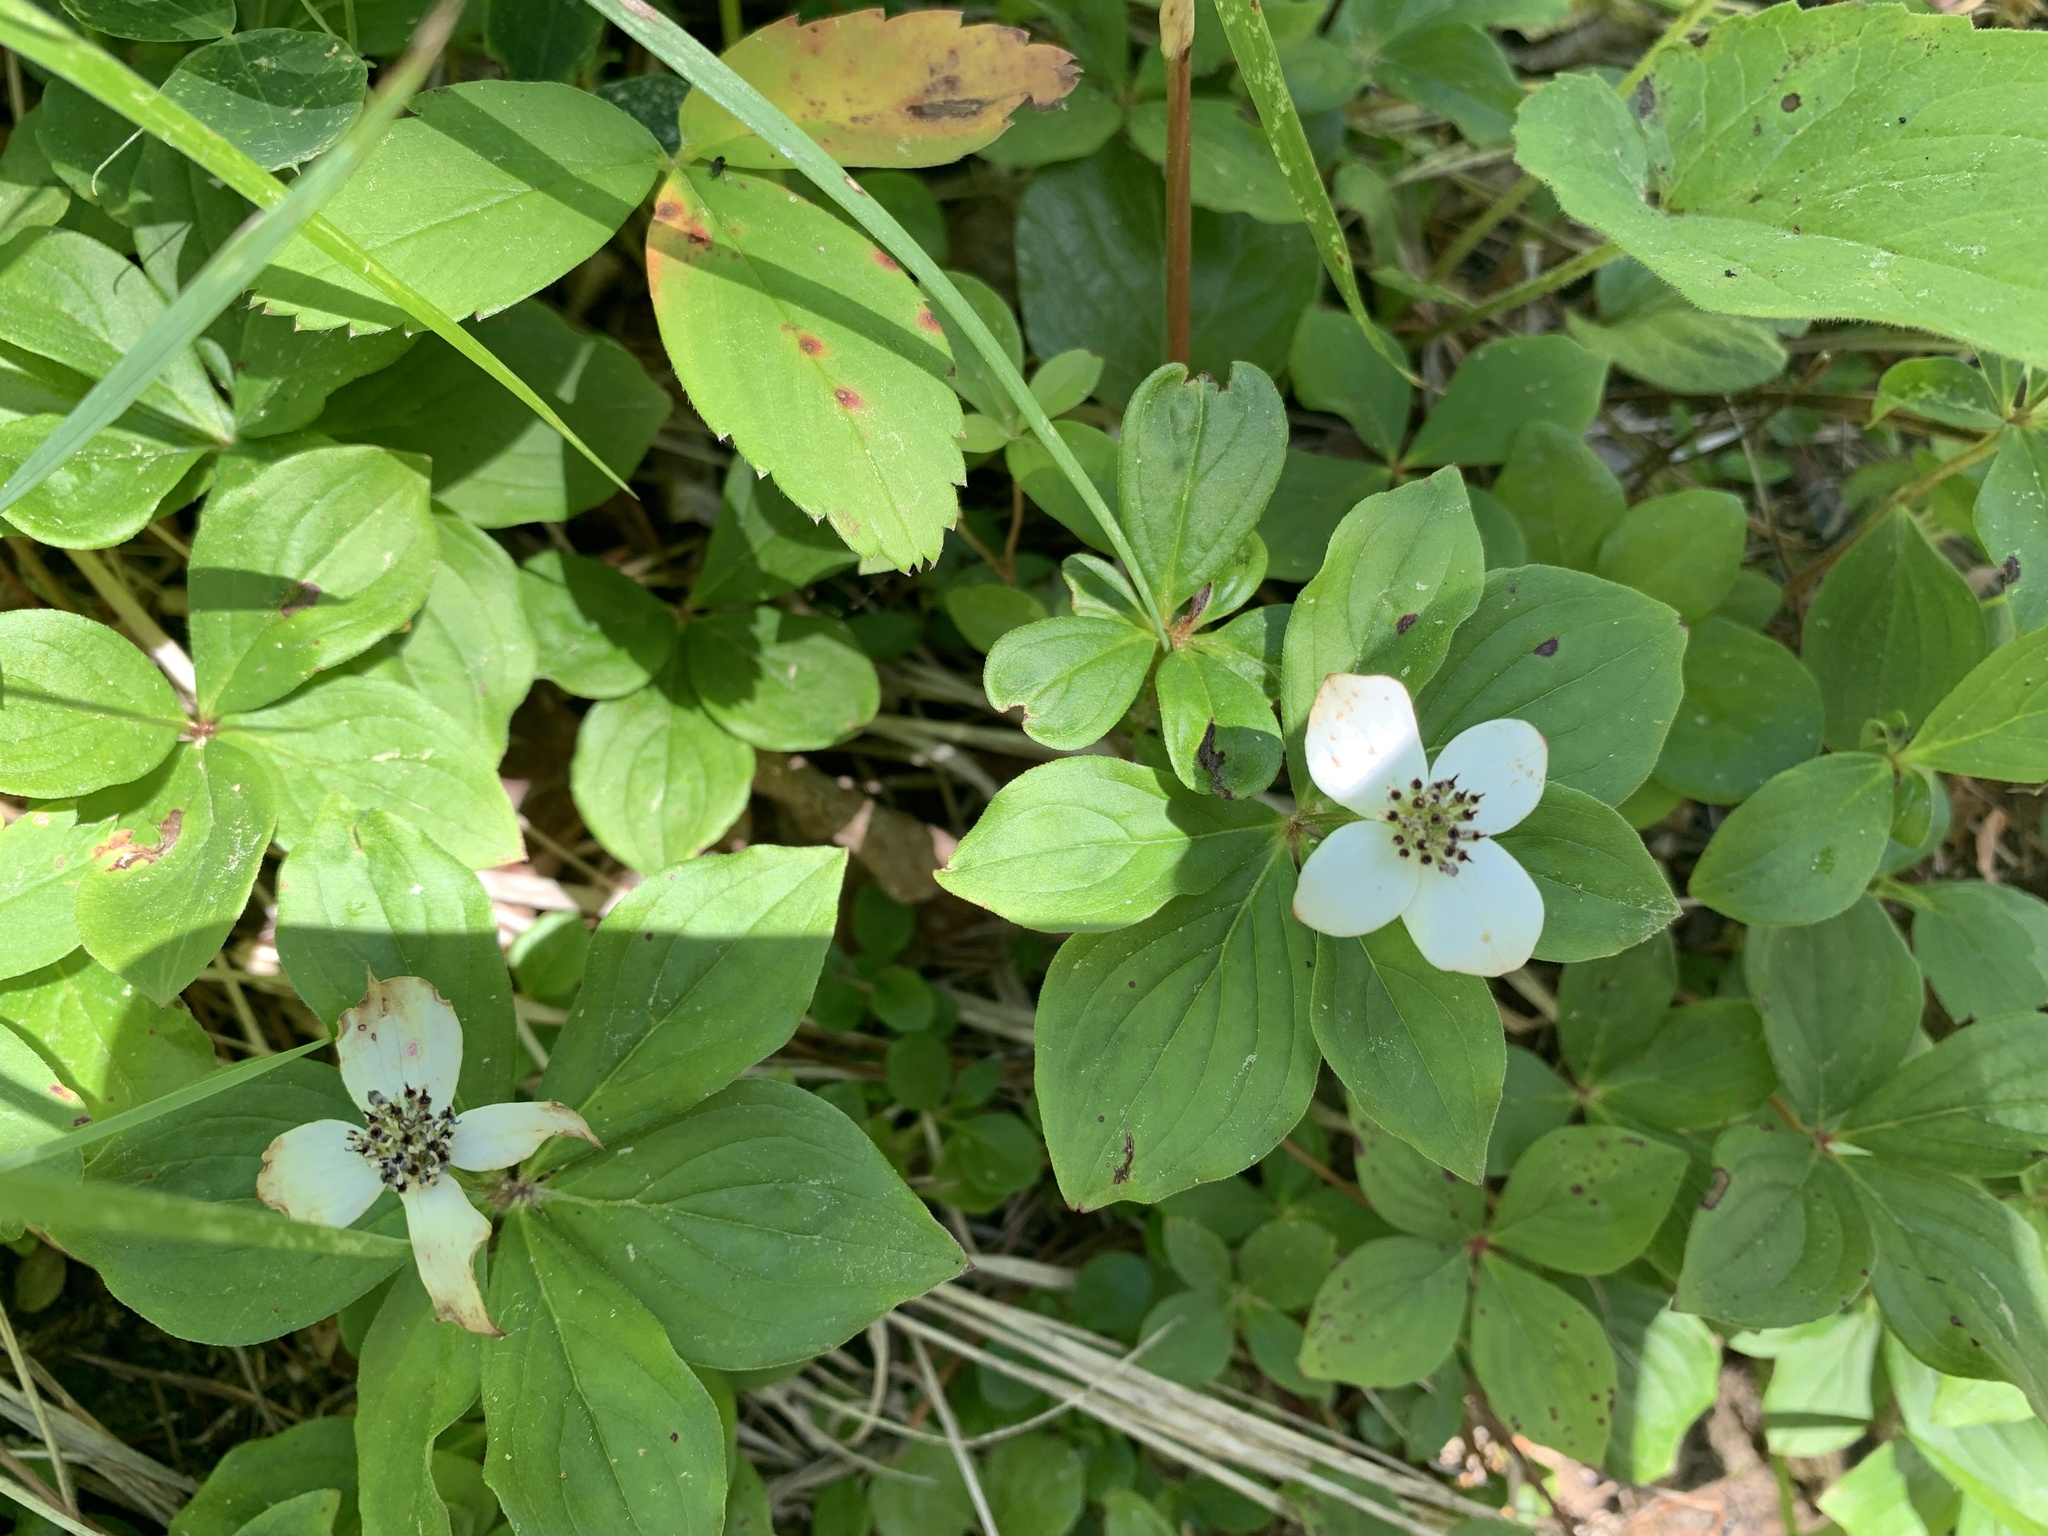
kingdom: Plantae
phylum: Tracheophyta
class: Magnoliopsida
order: Cornales
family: Cornaceae
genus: Cornus
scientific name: Cornus canadensis
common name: Creeping dogwood
